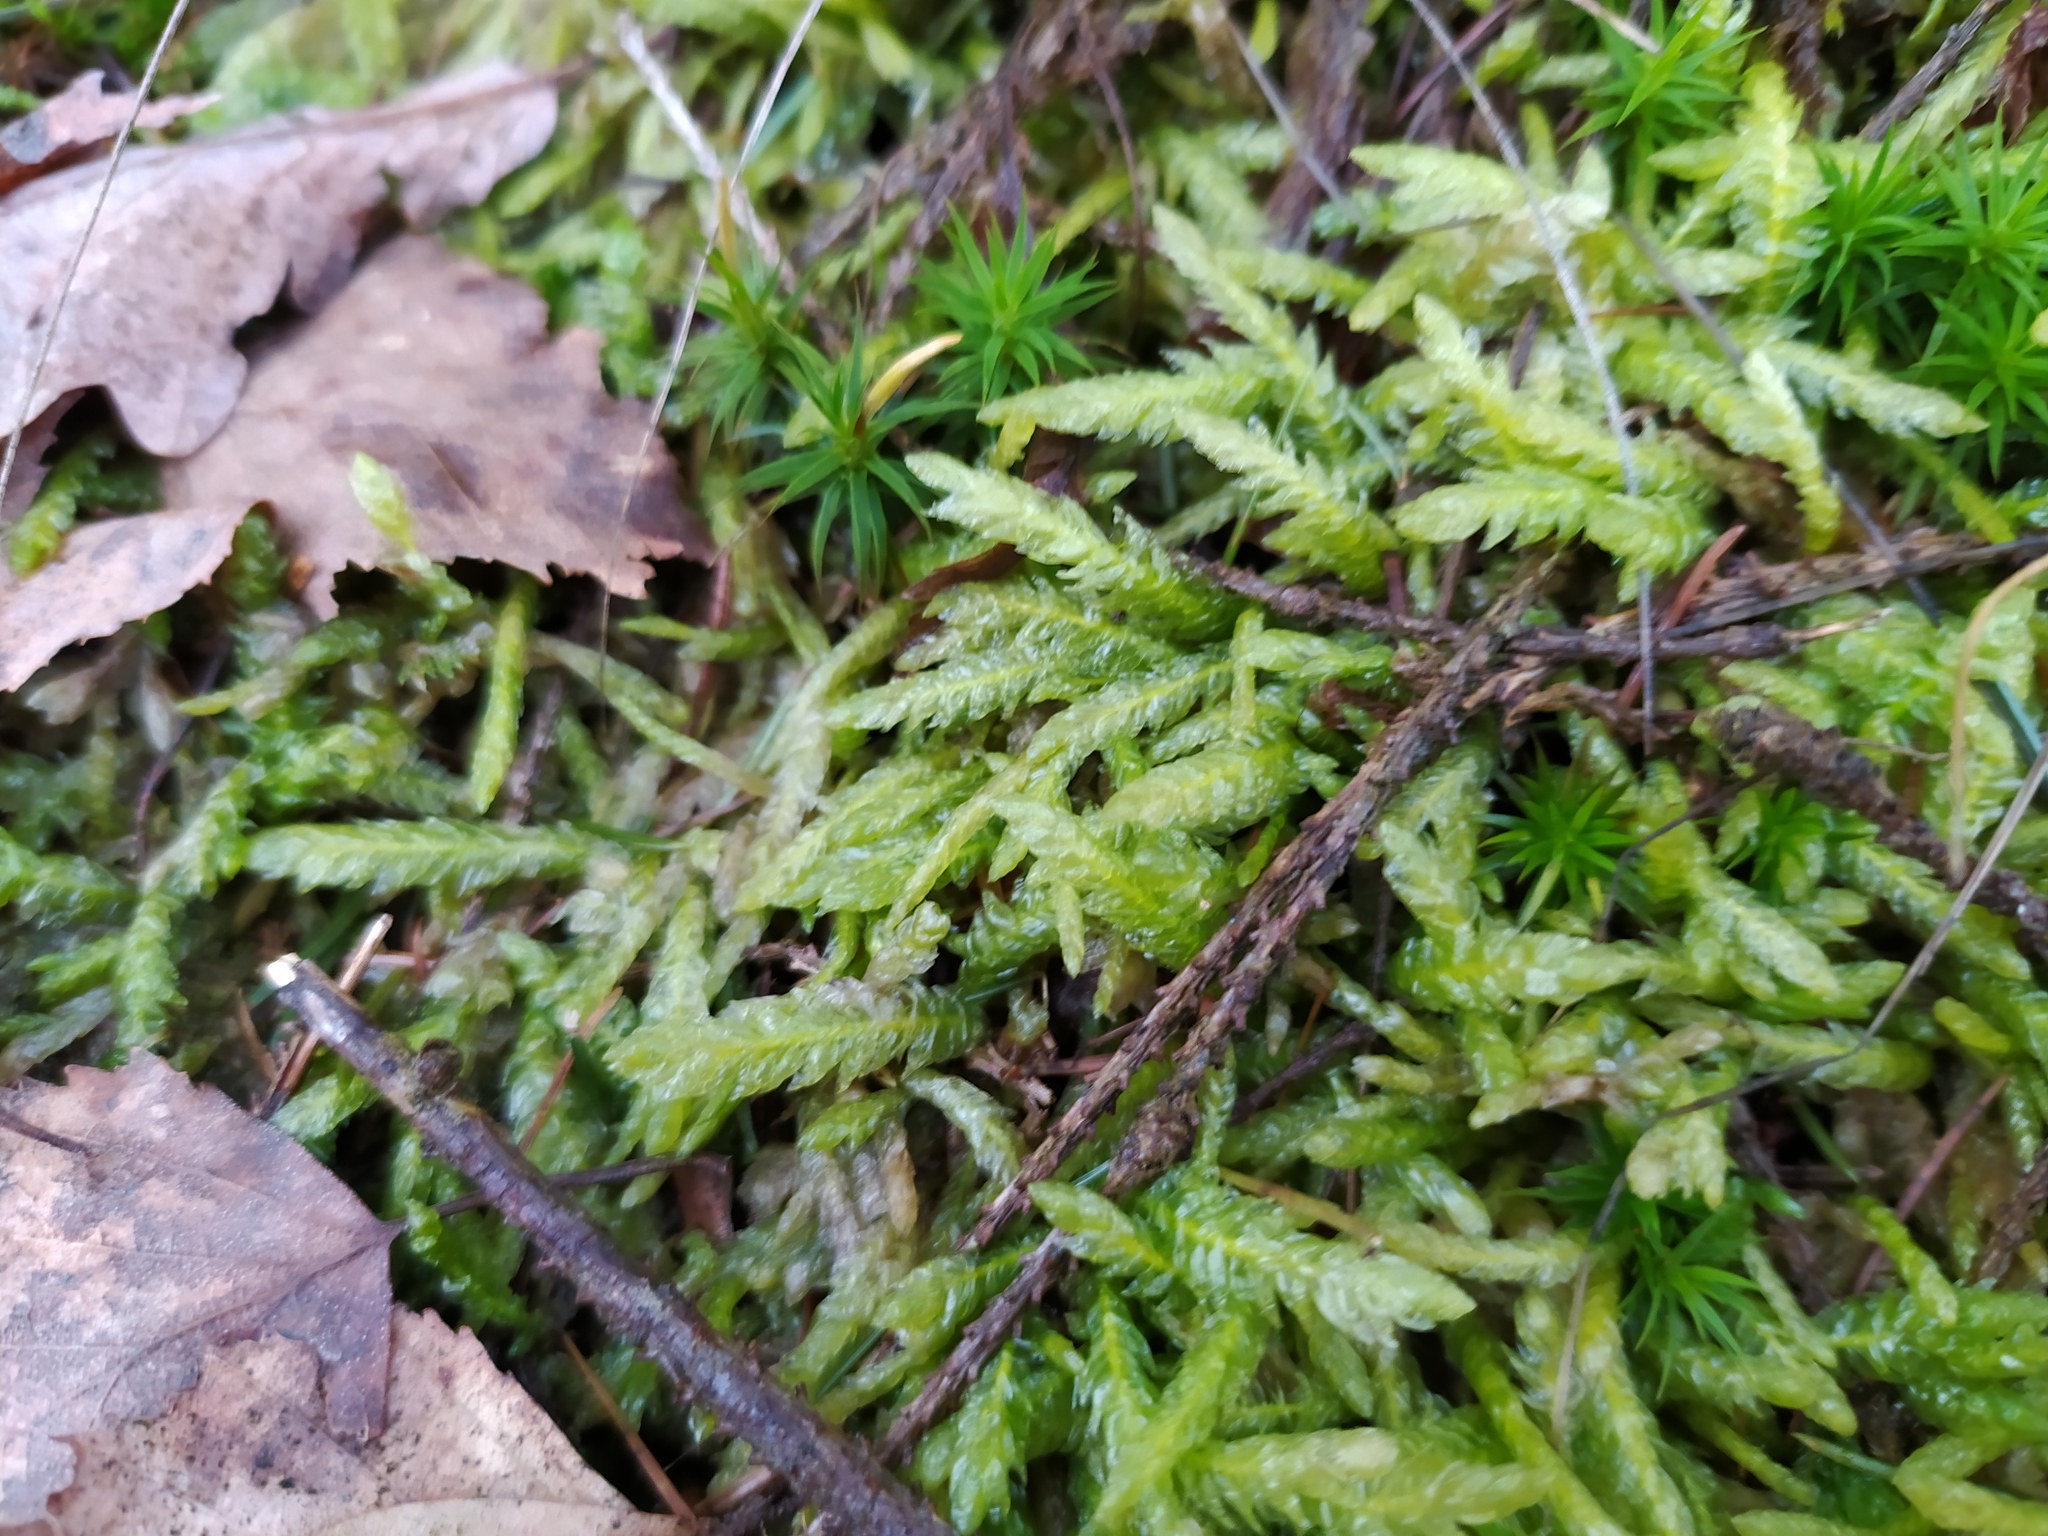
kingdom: Plantae
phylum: Bryophyta
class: Bryopsida
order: Hypnales
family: Plagiotheciaceae
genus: Plagiothecium
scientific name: Plagiothecium undulatum
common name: Waved silk-moss
